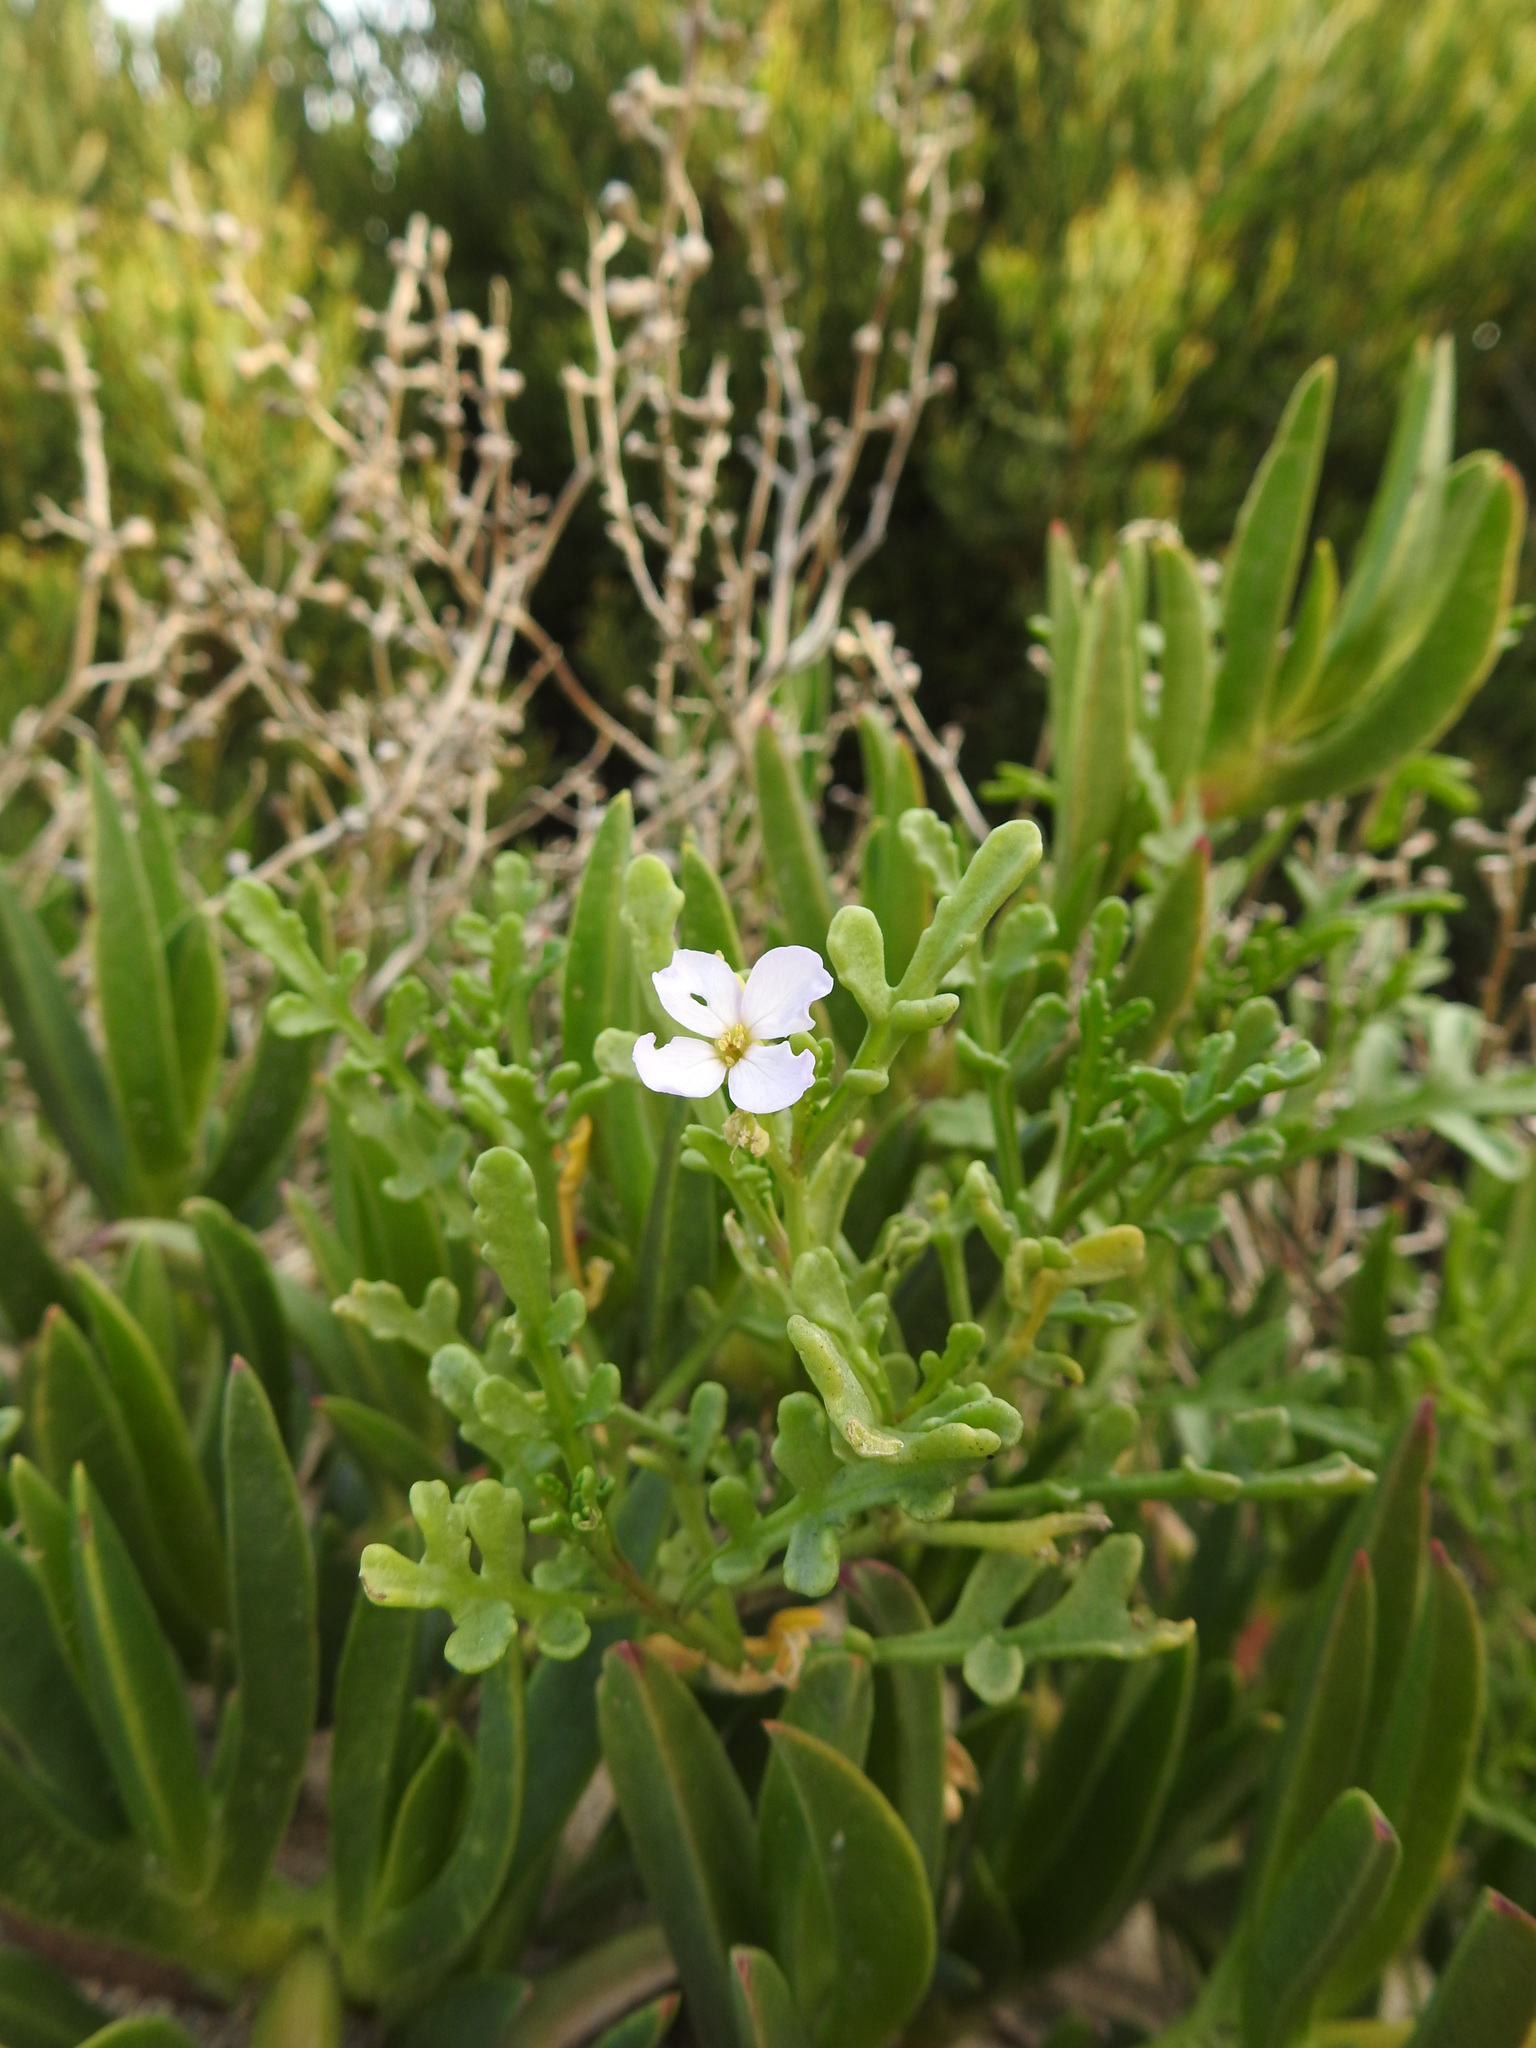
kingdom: Plantae
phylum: Tracheophyta
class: Magnoliopsida
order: Brassicales
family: Brassicaceae
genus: Cakile
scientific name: Cakile maritima
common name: Sea rocket
